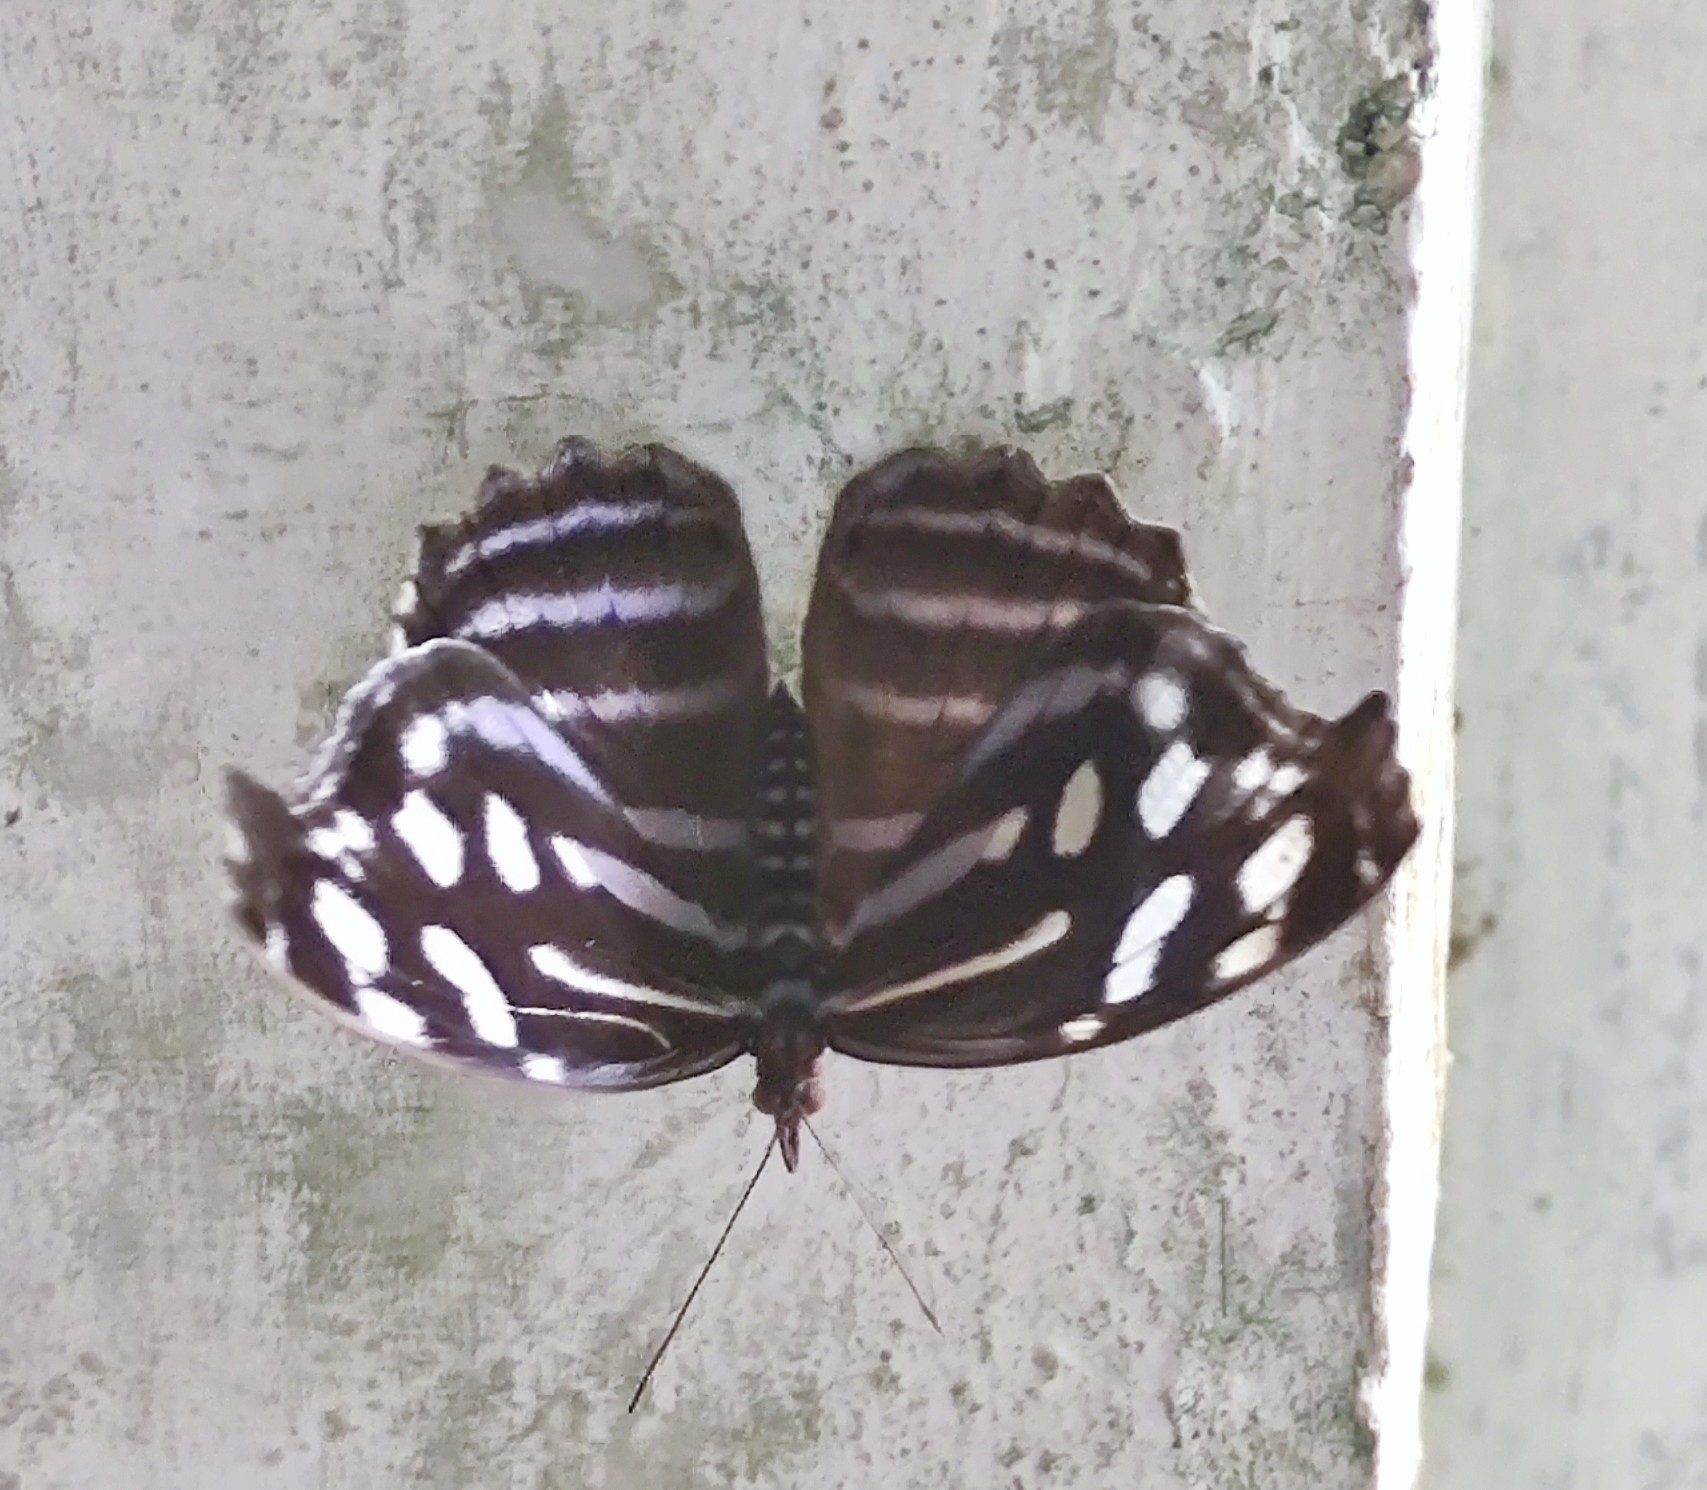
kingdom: Animalia
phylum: Arthropoda
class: Insecta
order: Lepidoptera
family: Nymphalidae
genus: Myscelia
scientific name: Myscelia cyaniris
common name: Whitened bluewing
